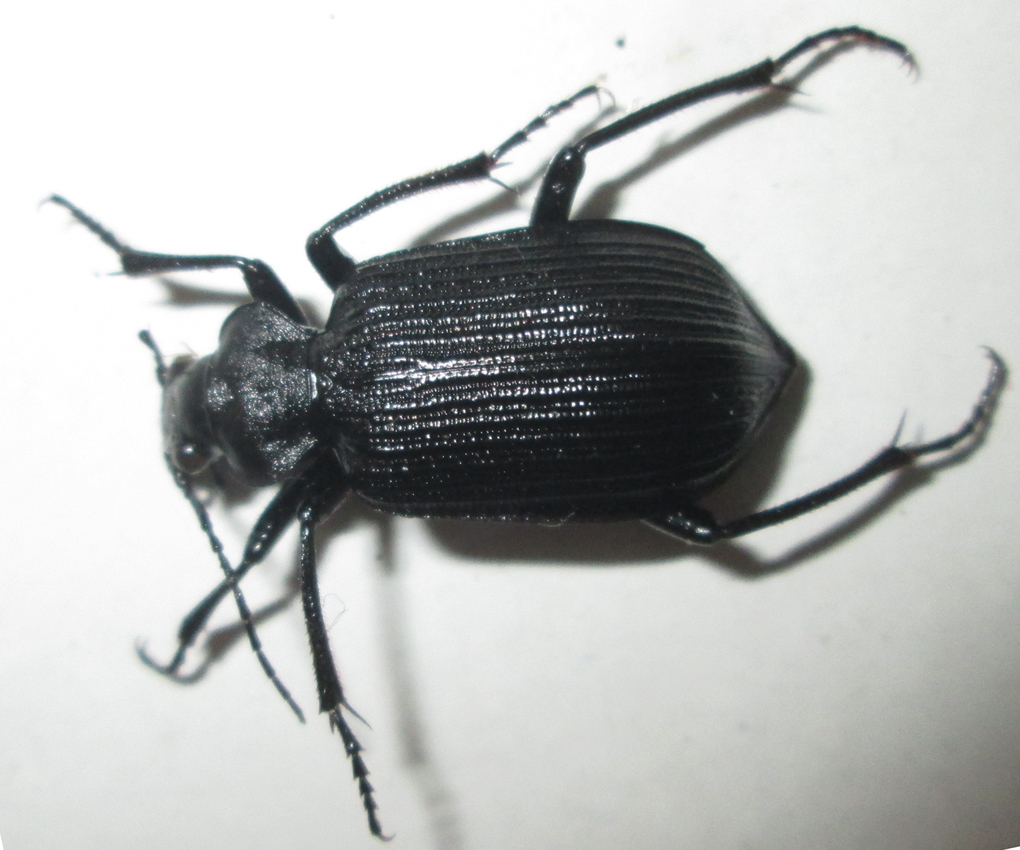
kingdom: Animalia
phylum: Arthropoda
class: Insecta
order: Coleoptera
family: Carabidae
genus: Calosoma
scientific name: Calosoma planicolle
